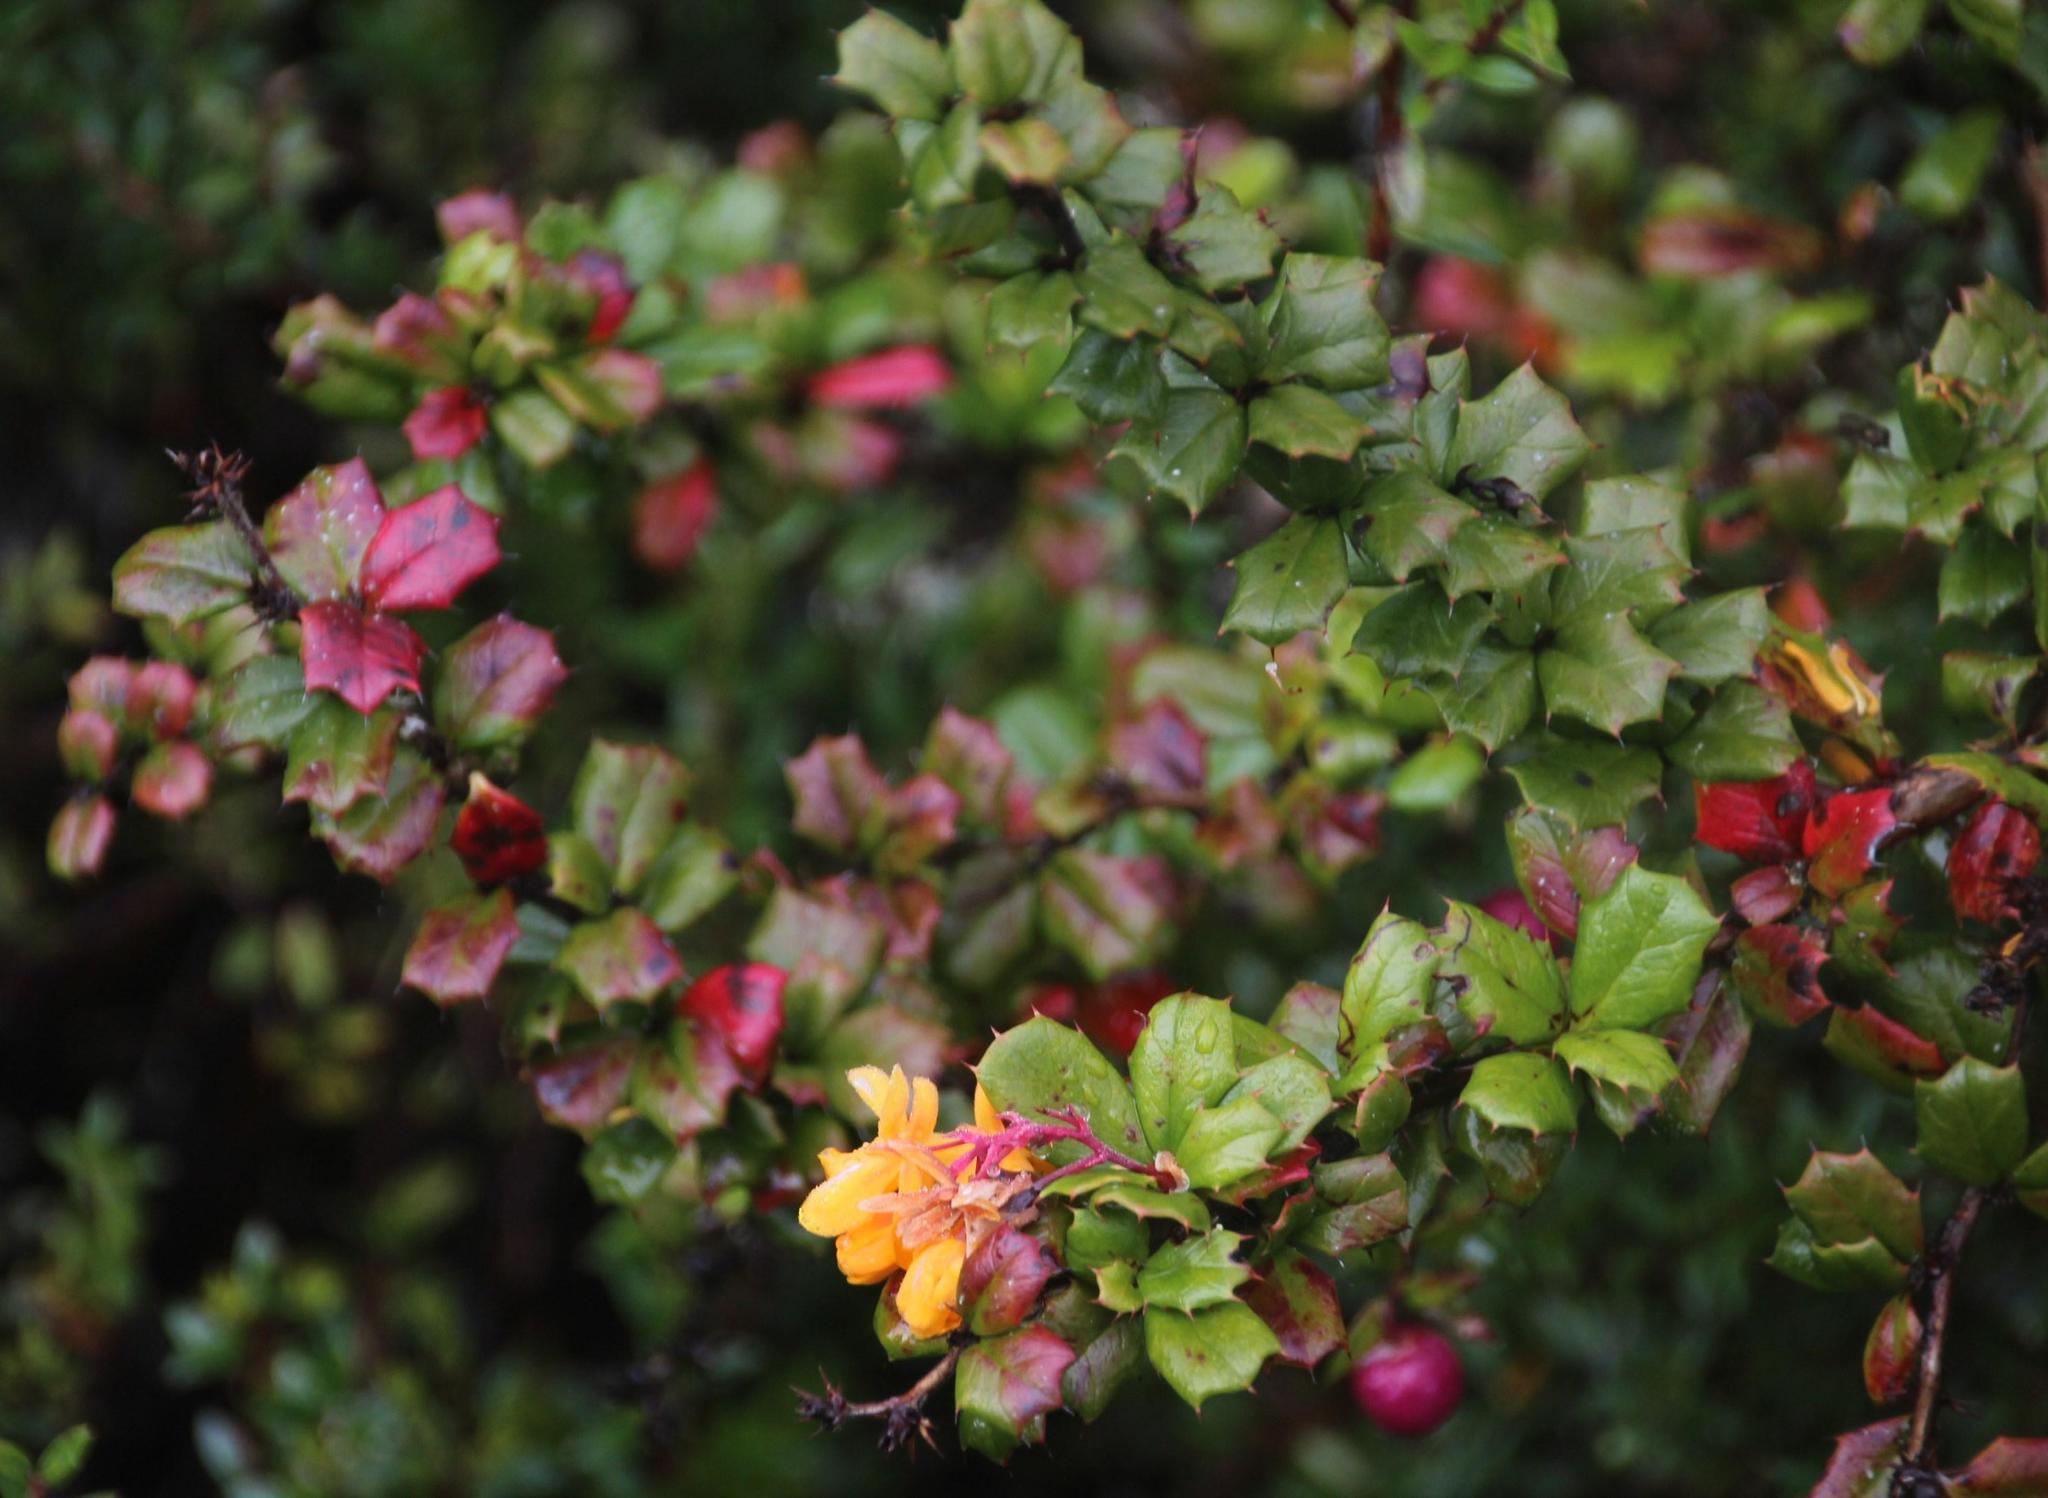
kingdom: Plantae
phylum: Tracheophyta
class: Magnoliopsida
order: Ranunculales
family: Berberidaceae
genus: Berberis
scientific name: Berberis darwinii
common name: Darwin's barberry
